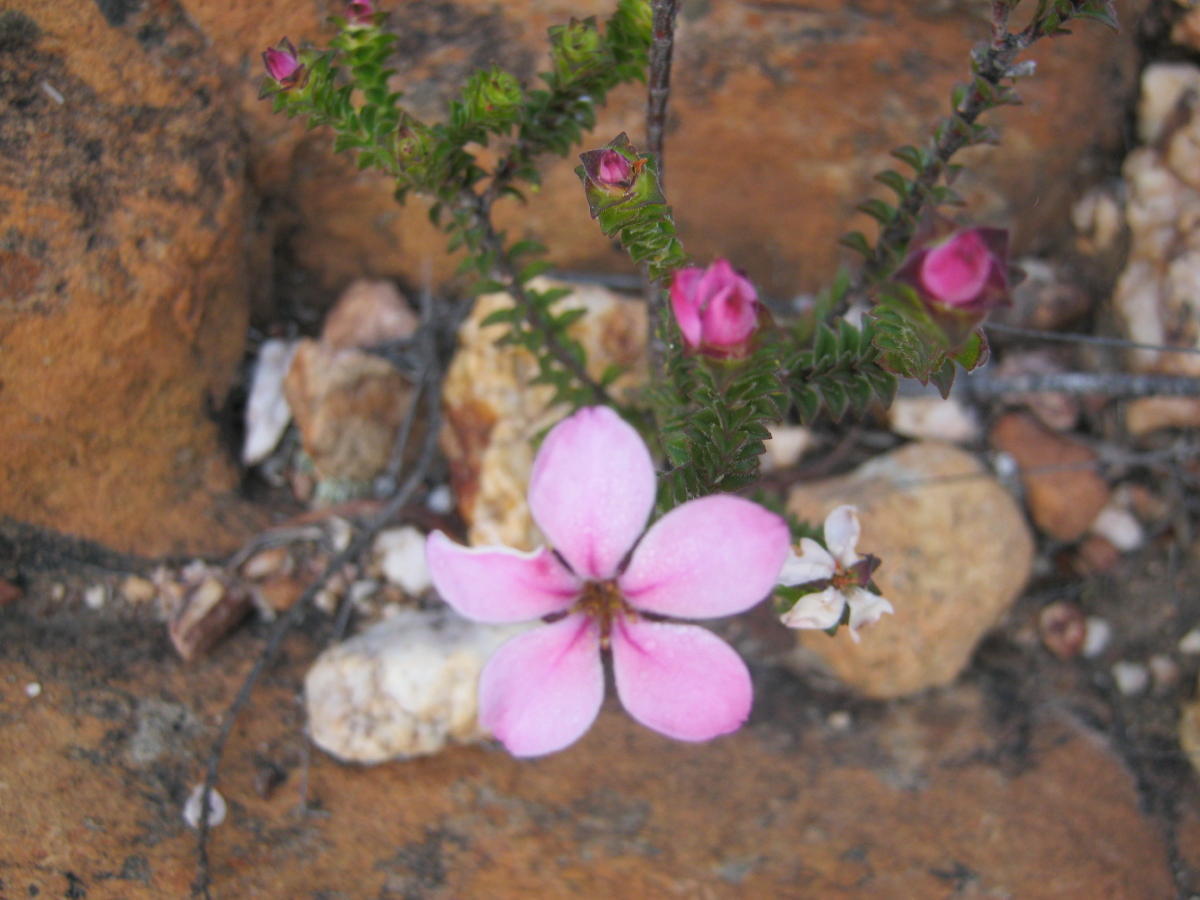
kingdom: Plantae
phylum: Tracheophyta
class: Magnoliopsida
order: Sapindales
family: Rutaceae
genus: Acmadenia
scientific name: Acmadenia tetragona
